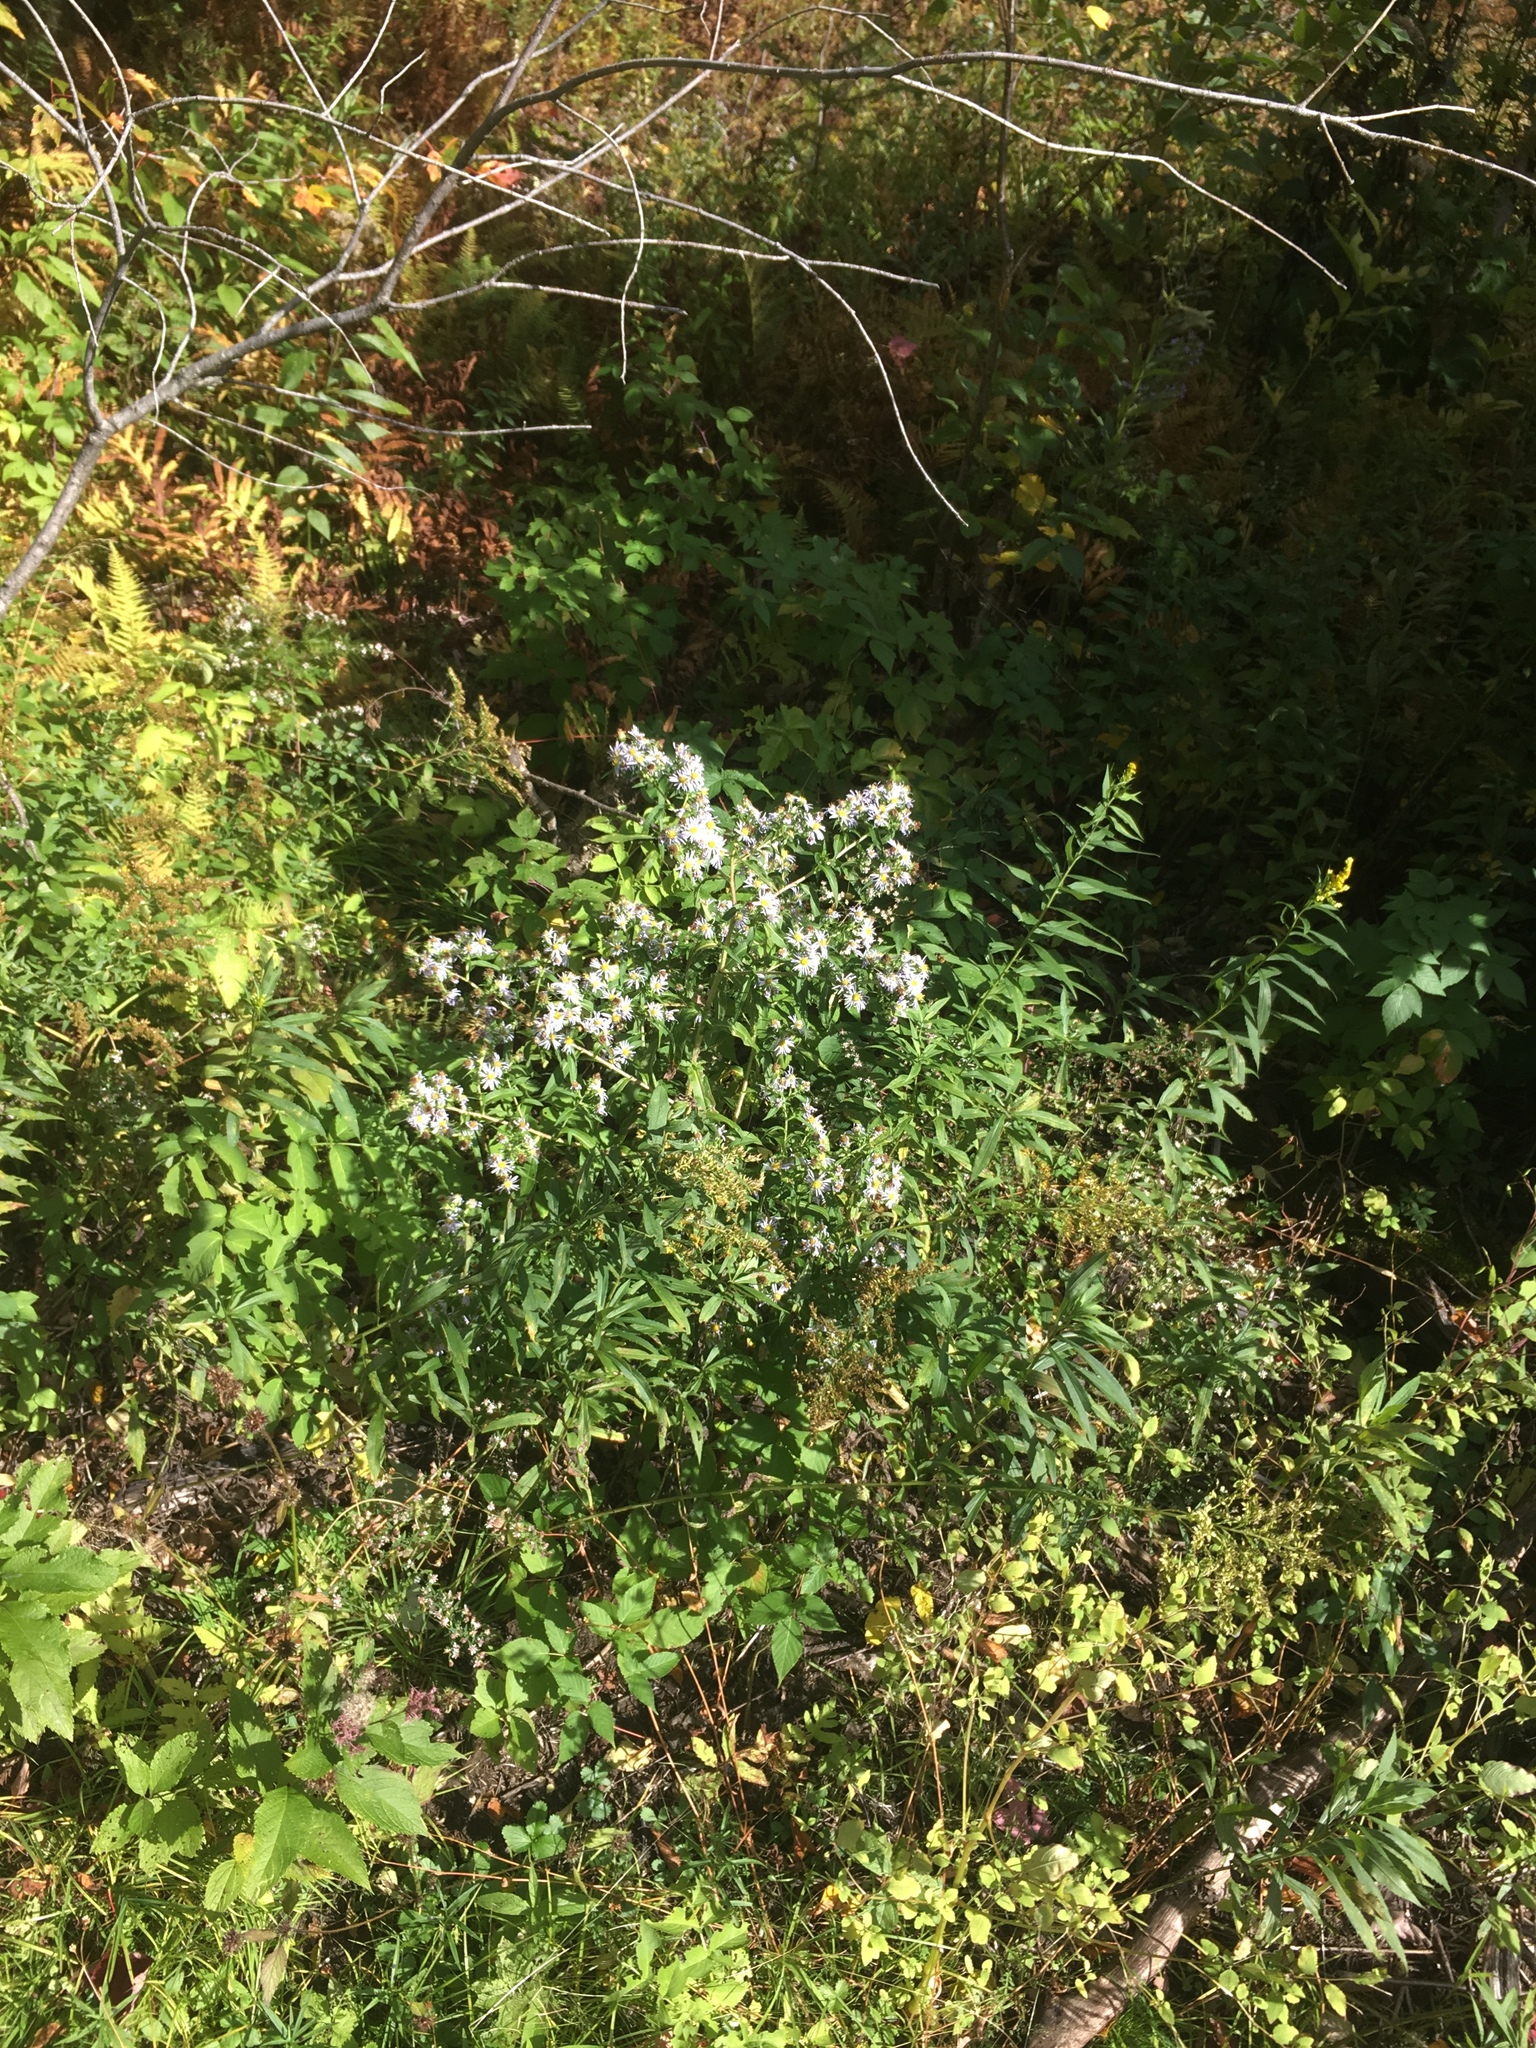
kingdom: Plantae
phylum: Tracheophyta
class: Magnoliopsida
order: Asterales
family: Asteraceae
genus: Symphyotrichum
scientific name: Symphyotrichum puniceum
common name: Bog aster
